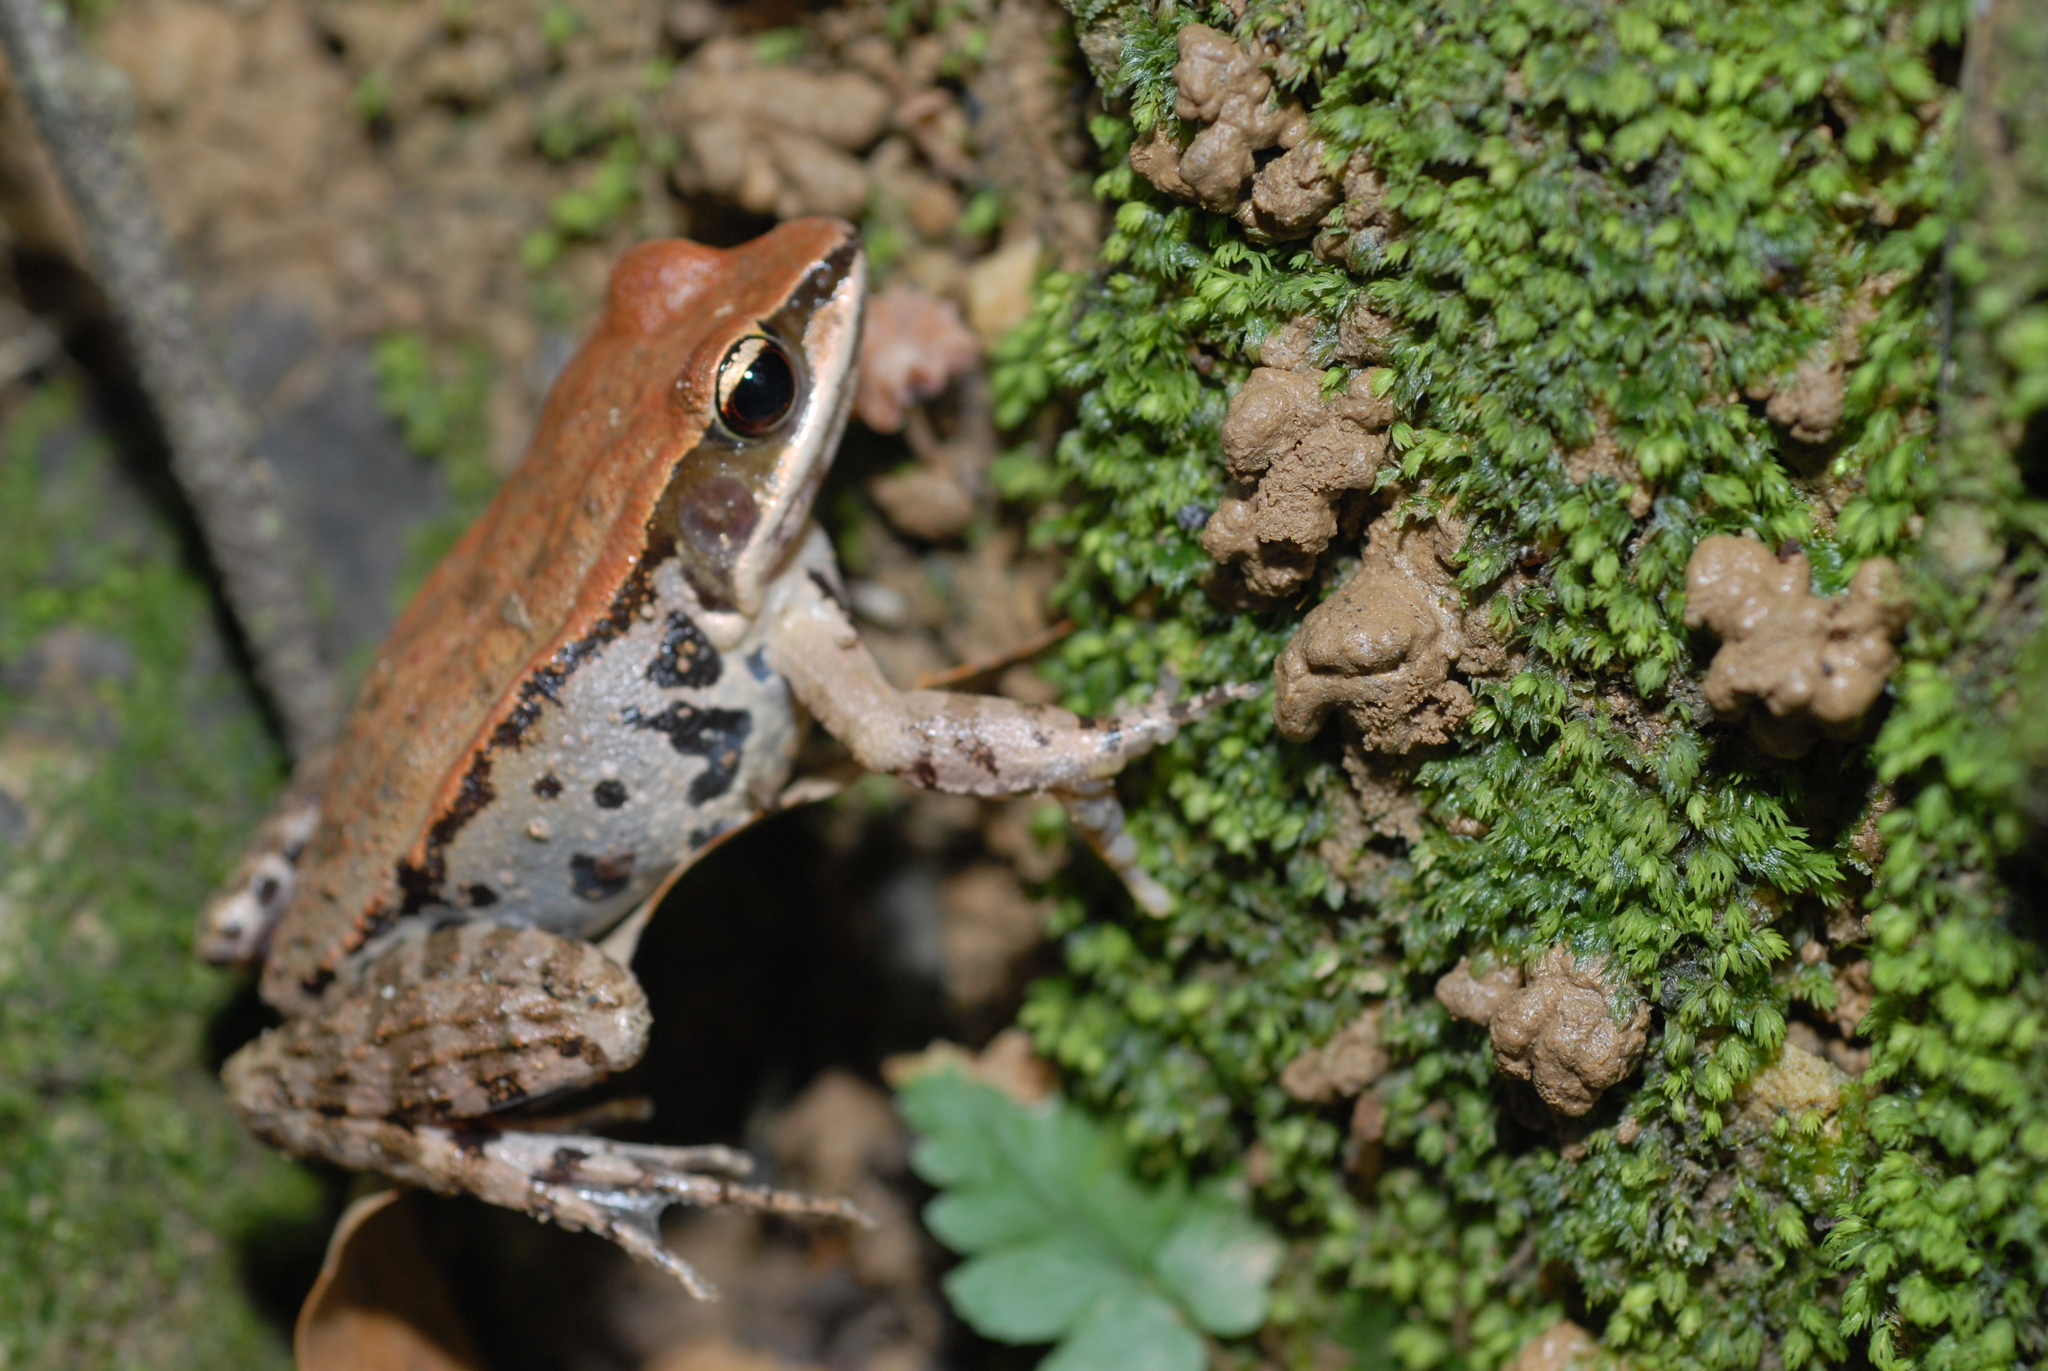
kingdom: Animalia
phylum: Chordata
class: Amphibia
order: Anura
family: Ranidae
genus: Hylarana
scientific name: Hylarana latouchii
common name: Broad-folded frog
